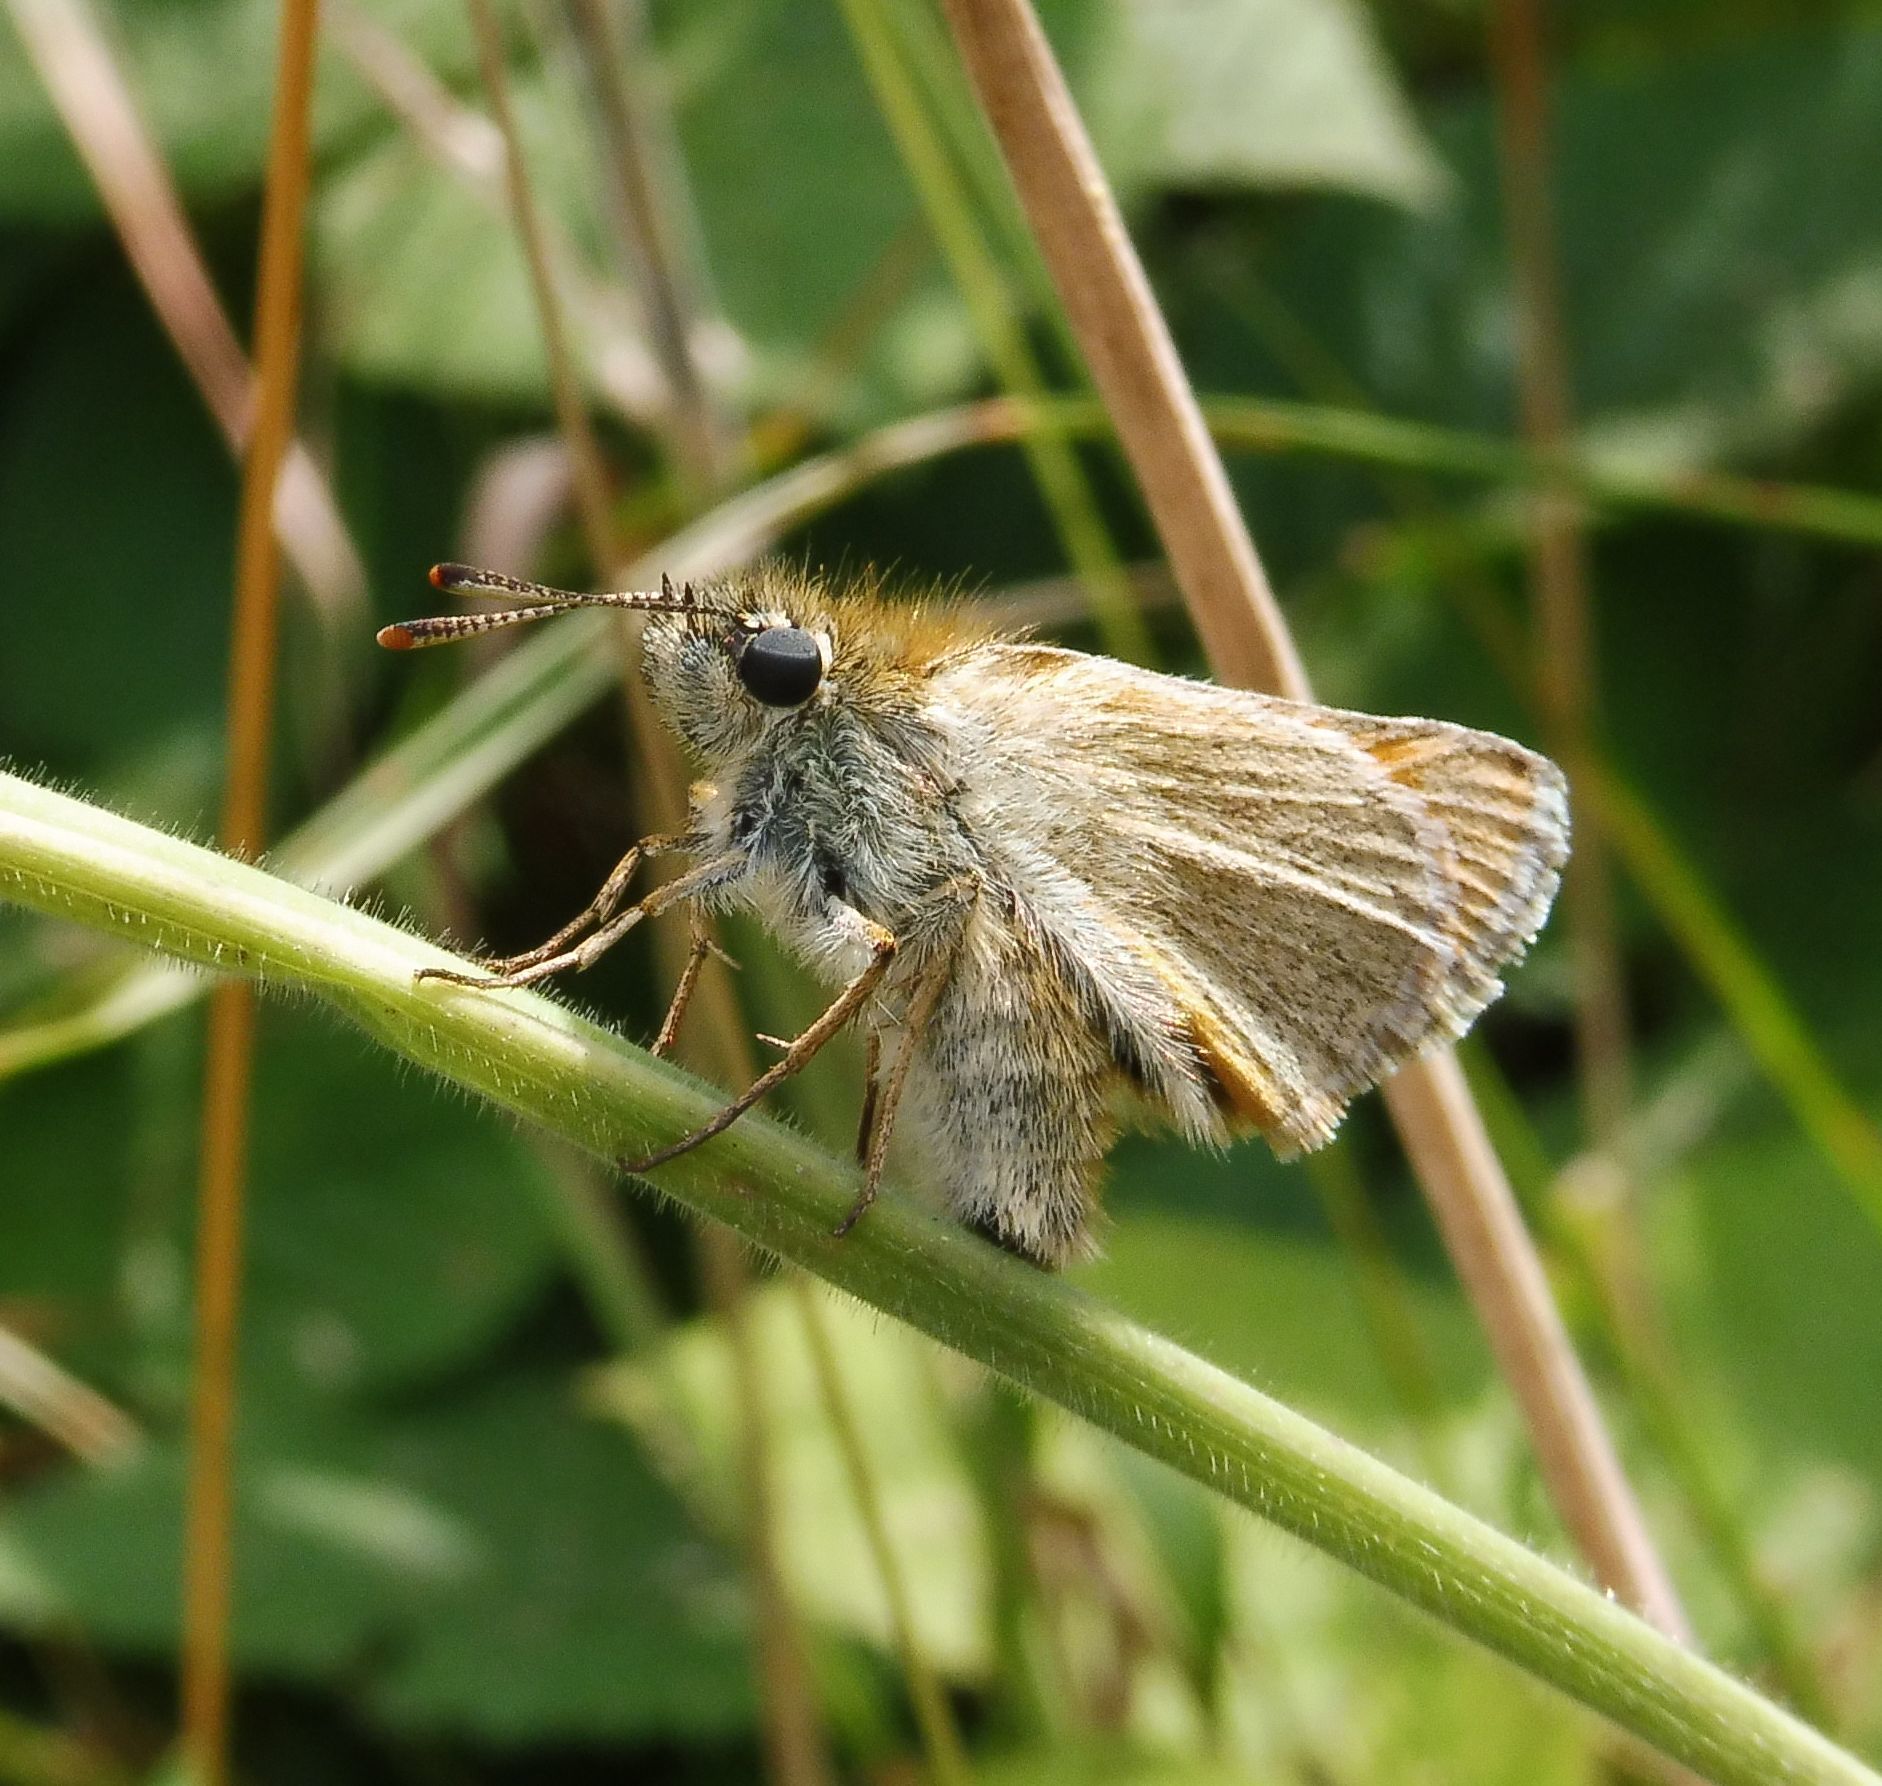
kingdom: Animalia
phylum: Arthropoda
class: Insecta
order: Lepidoptera
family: Hesperiidae
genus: Thymelicus
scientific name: Thymelicus sylvestris
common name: Small skipper
